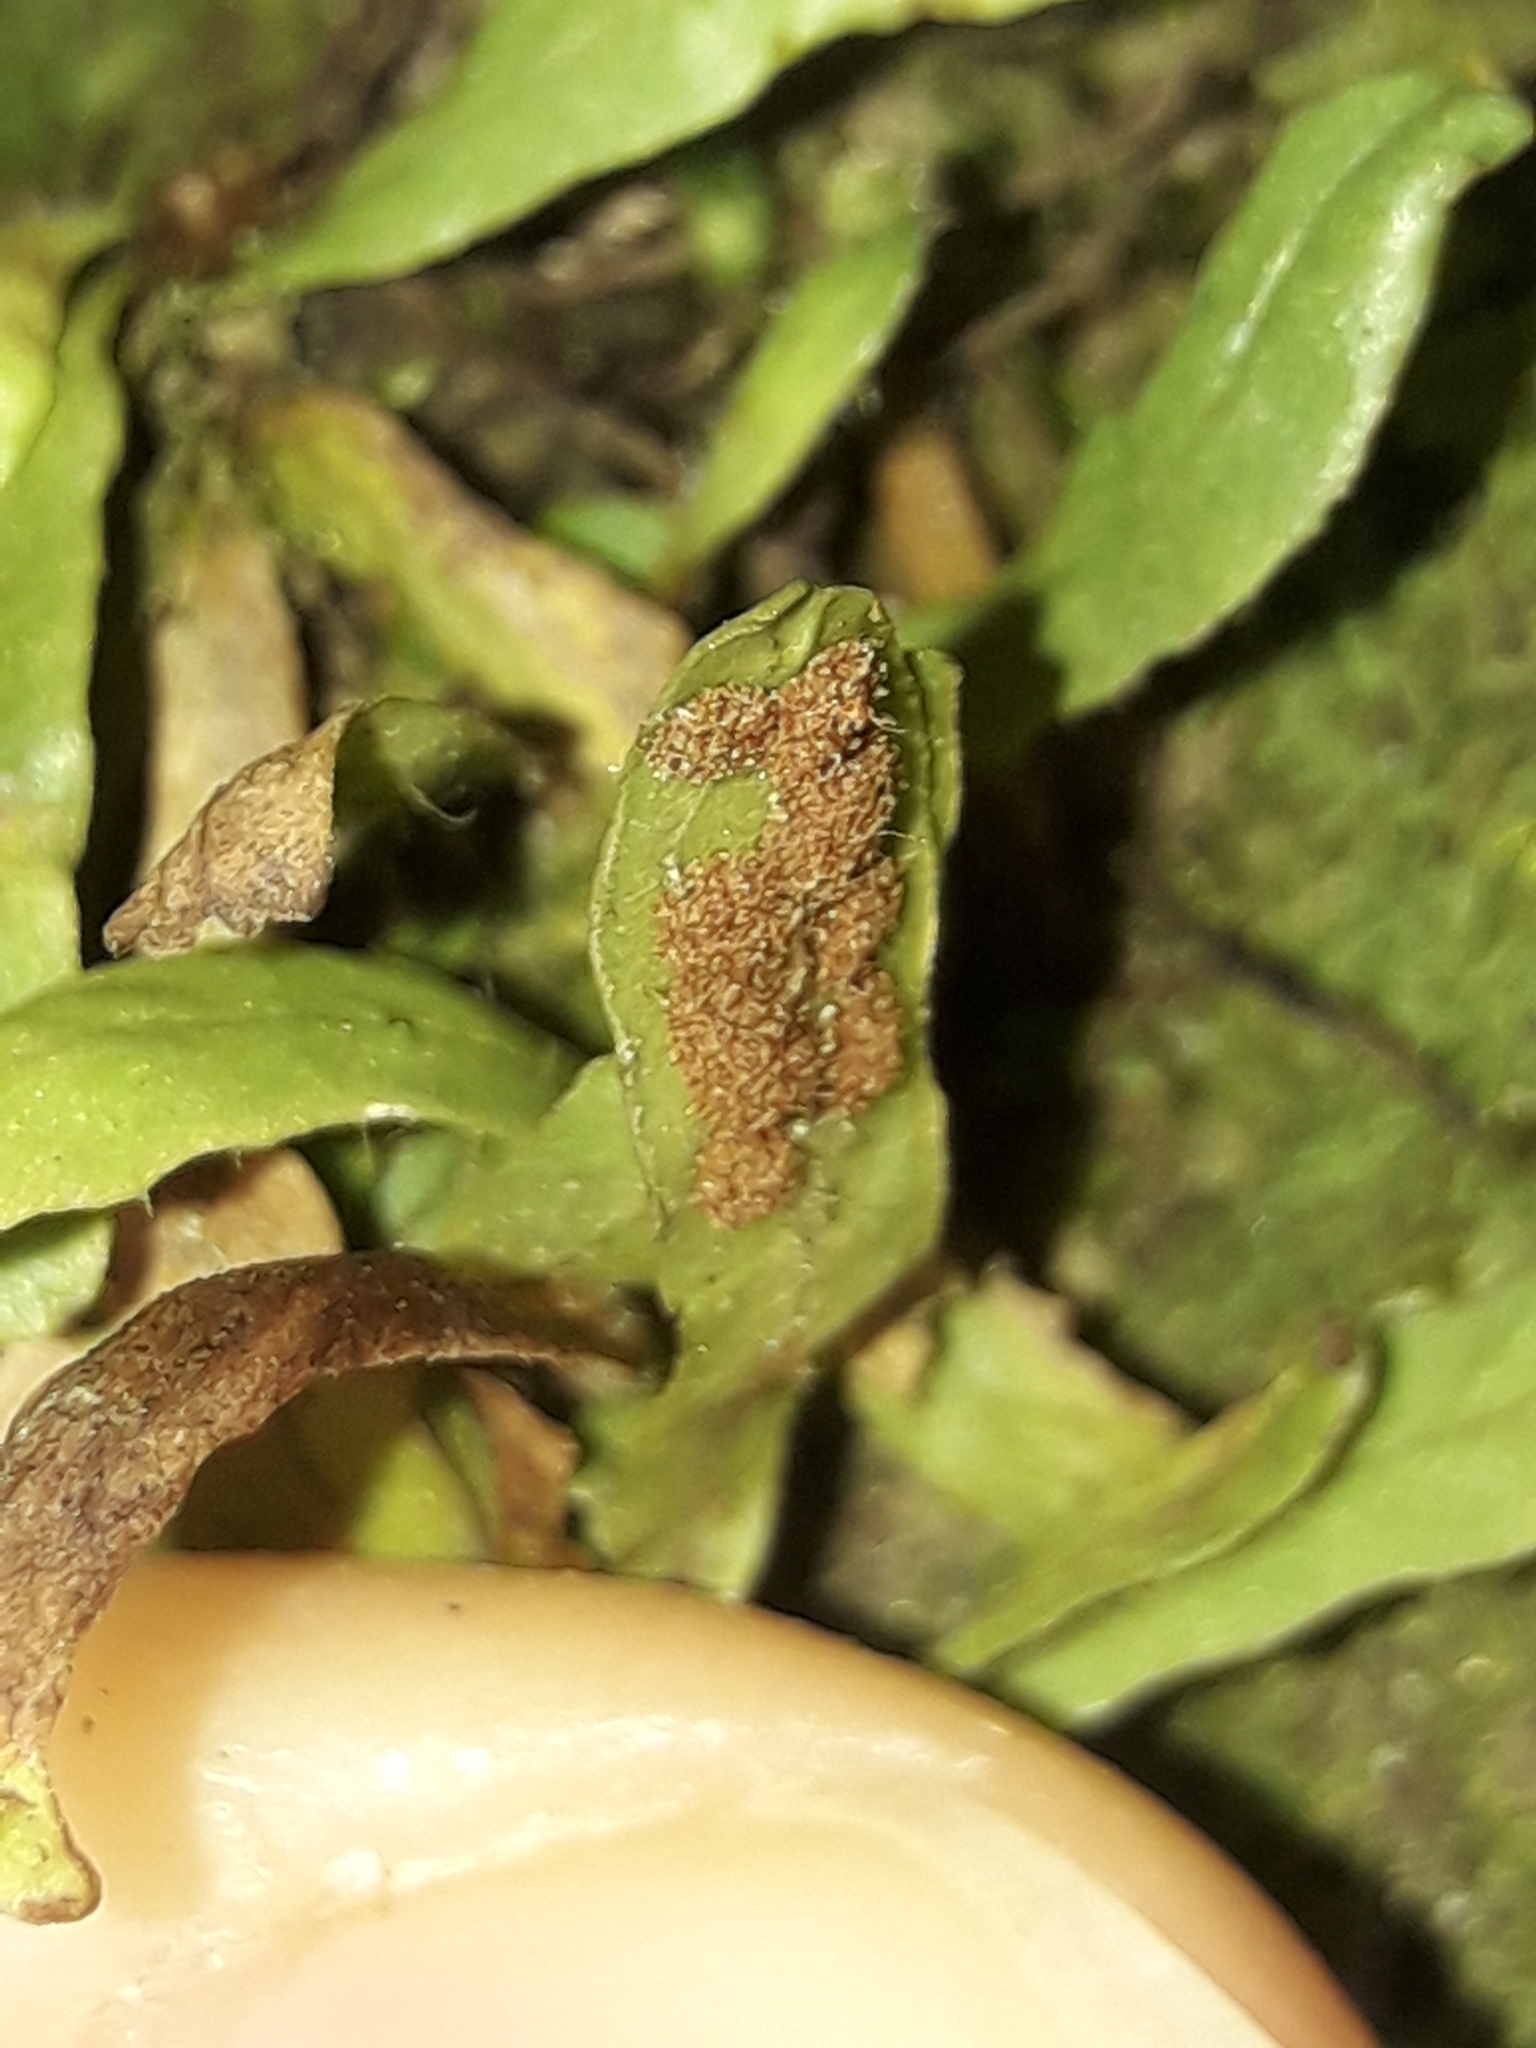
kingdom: Plantae
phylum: Tracheophyta
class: Polypodiopsida
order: Polypodiales
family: Polypodiaceae
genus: Notogrammitis
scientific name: Notogrammitis ciliata
